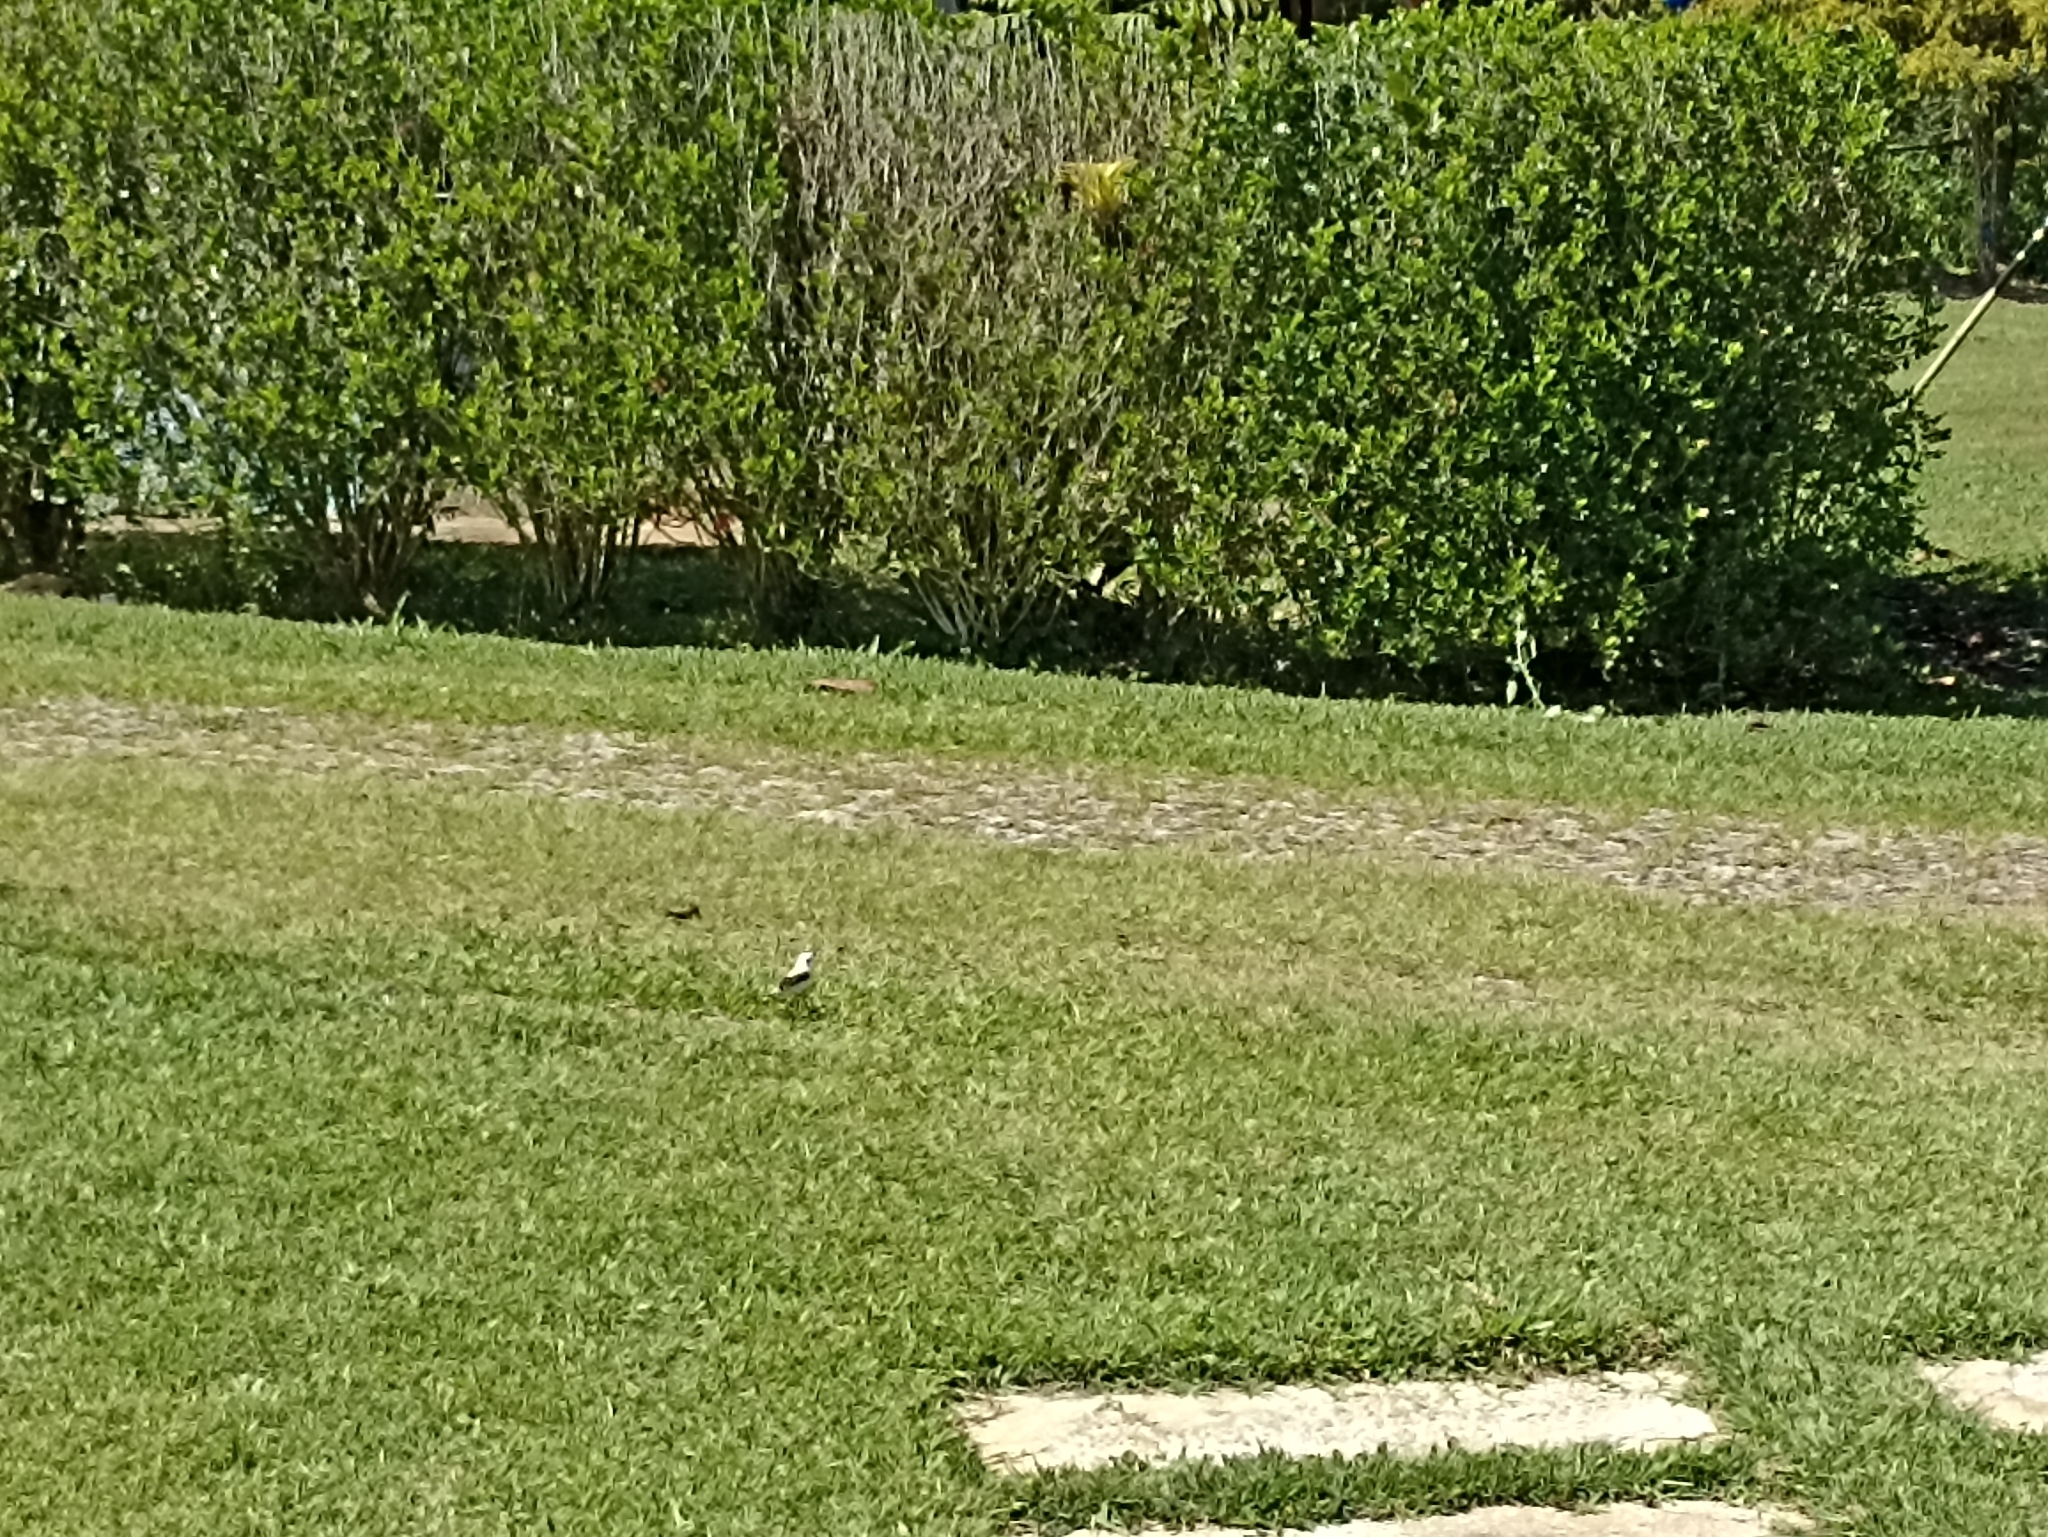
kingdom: Animalia
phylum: Chordata
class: Aves
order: Passeriformes
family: Tyrannidae
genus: Fluvicola
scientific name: Fluvicola nengeta
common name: Masked water tyrant
